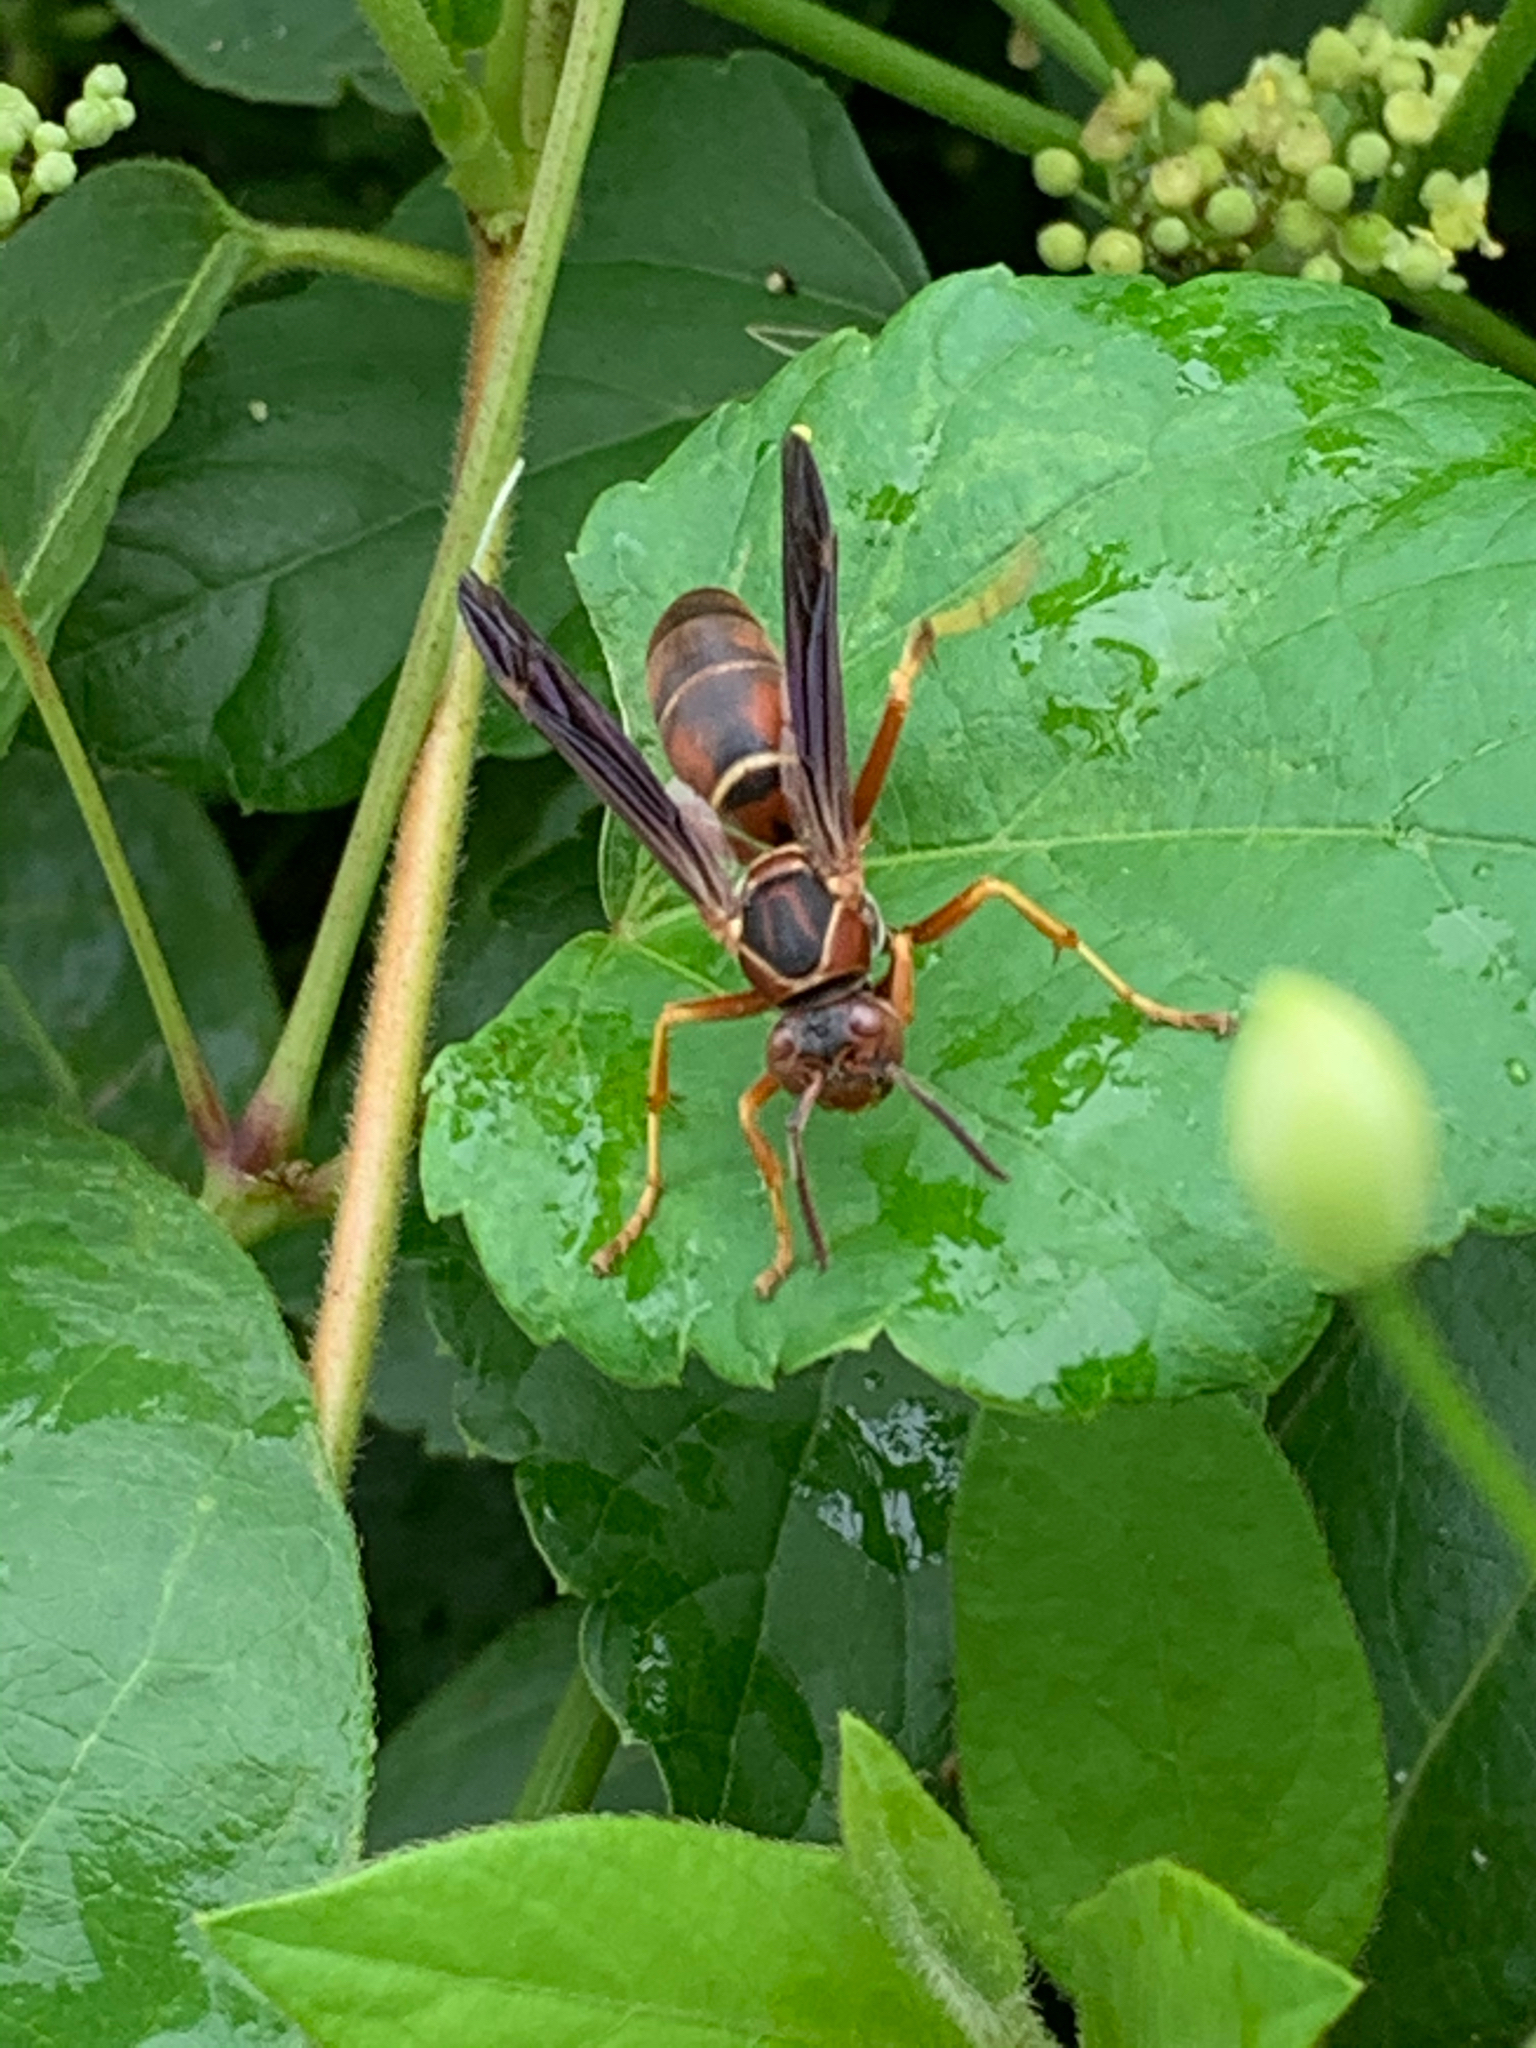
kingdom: Animalia
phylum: Arthropoda
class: Insecta
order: Hymenoptera
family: Eumenidae
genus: Polistes
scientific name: Polistes fuscatus
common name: Dark paper wasp
